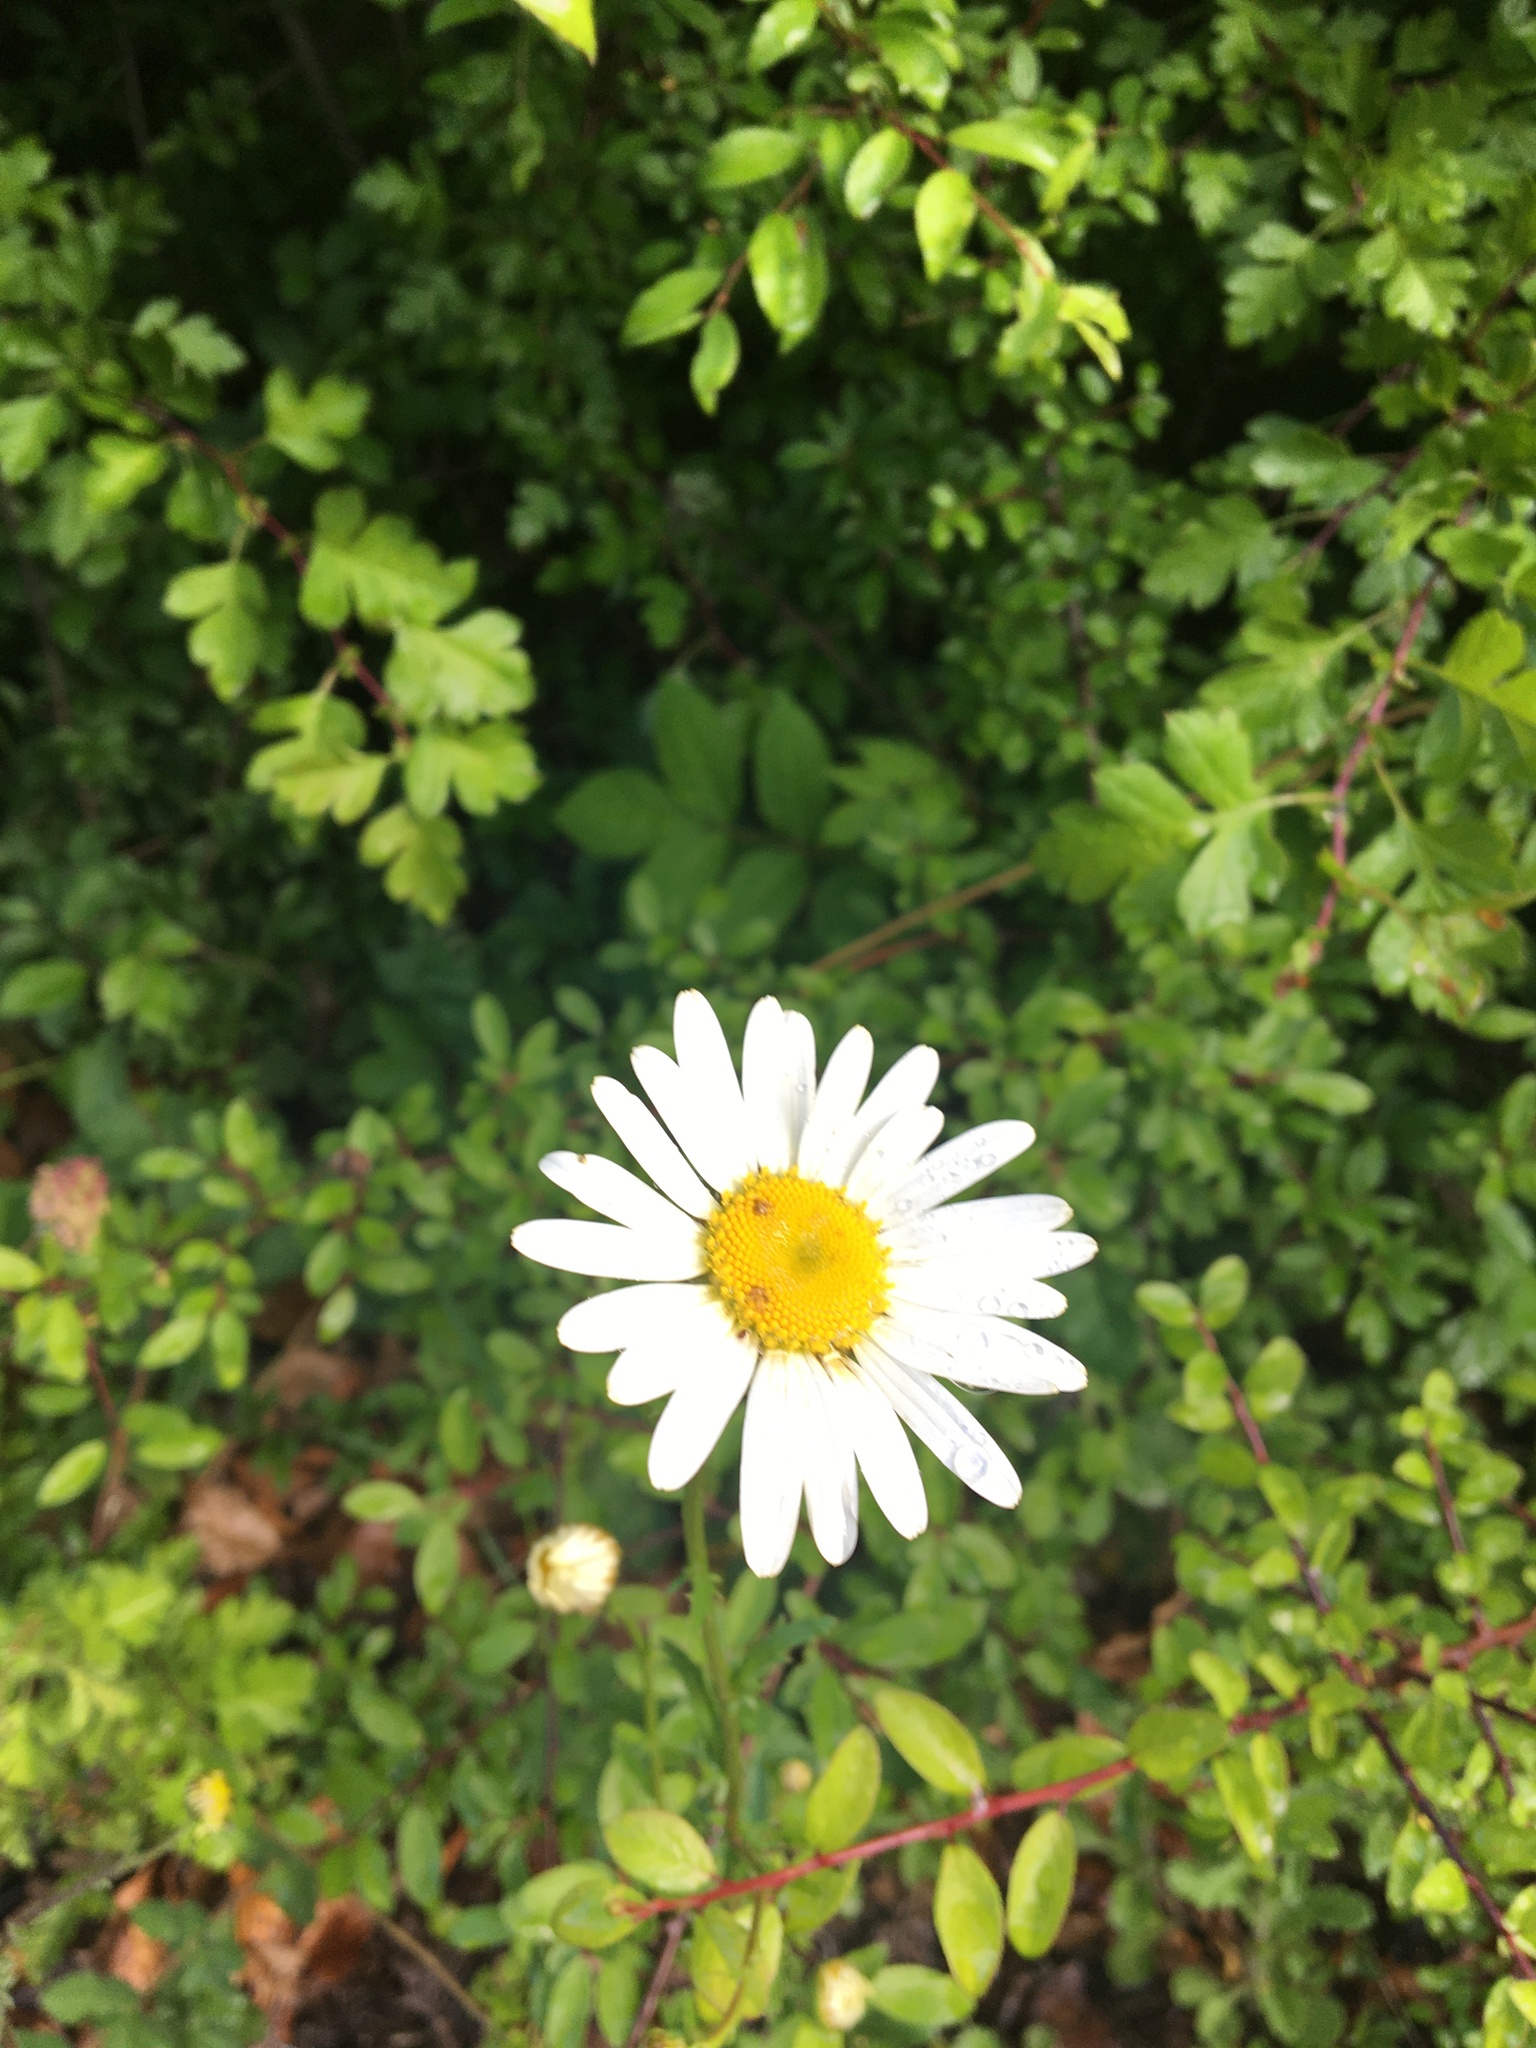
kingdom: Plantae
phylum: Tracheophyta
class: Magnoliopsida
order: Asterales
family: Asteraceae
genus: Leucanthemum
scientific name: Leucanthemum vulgare
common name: Oxeye daisy
